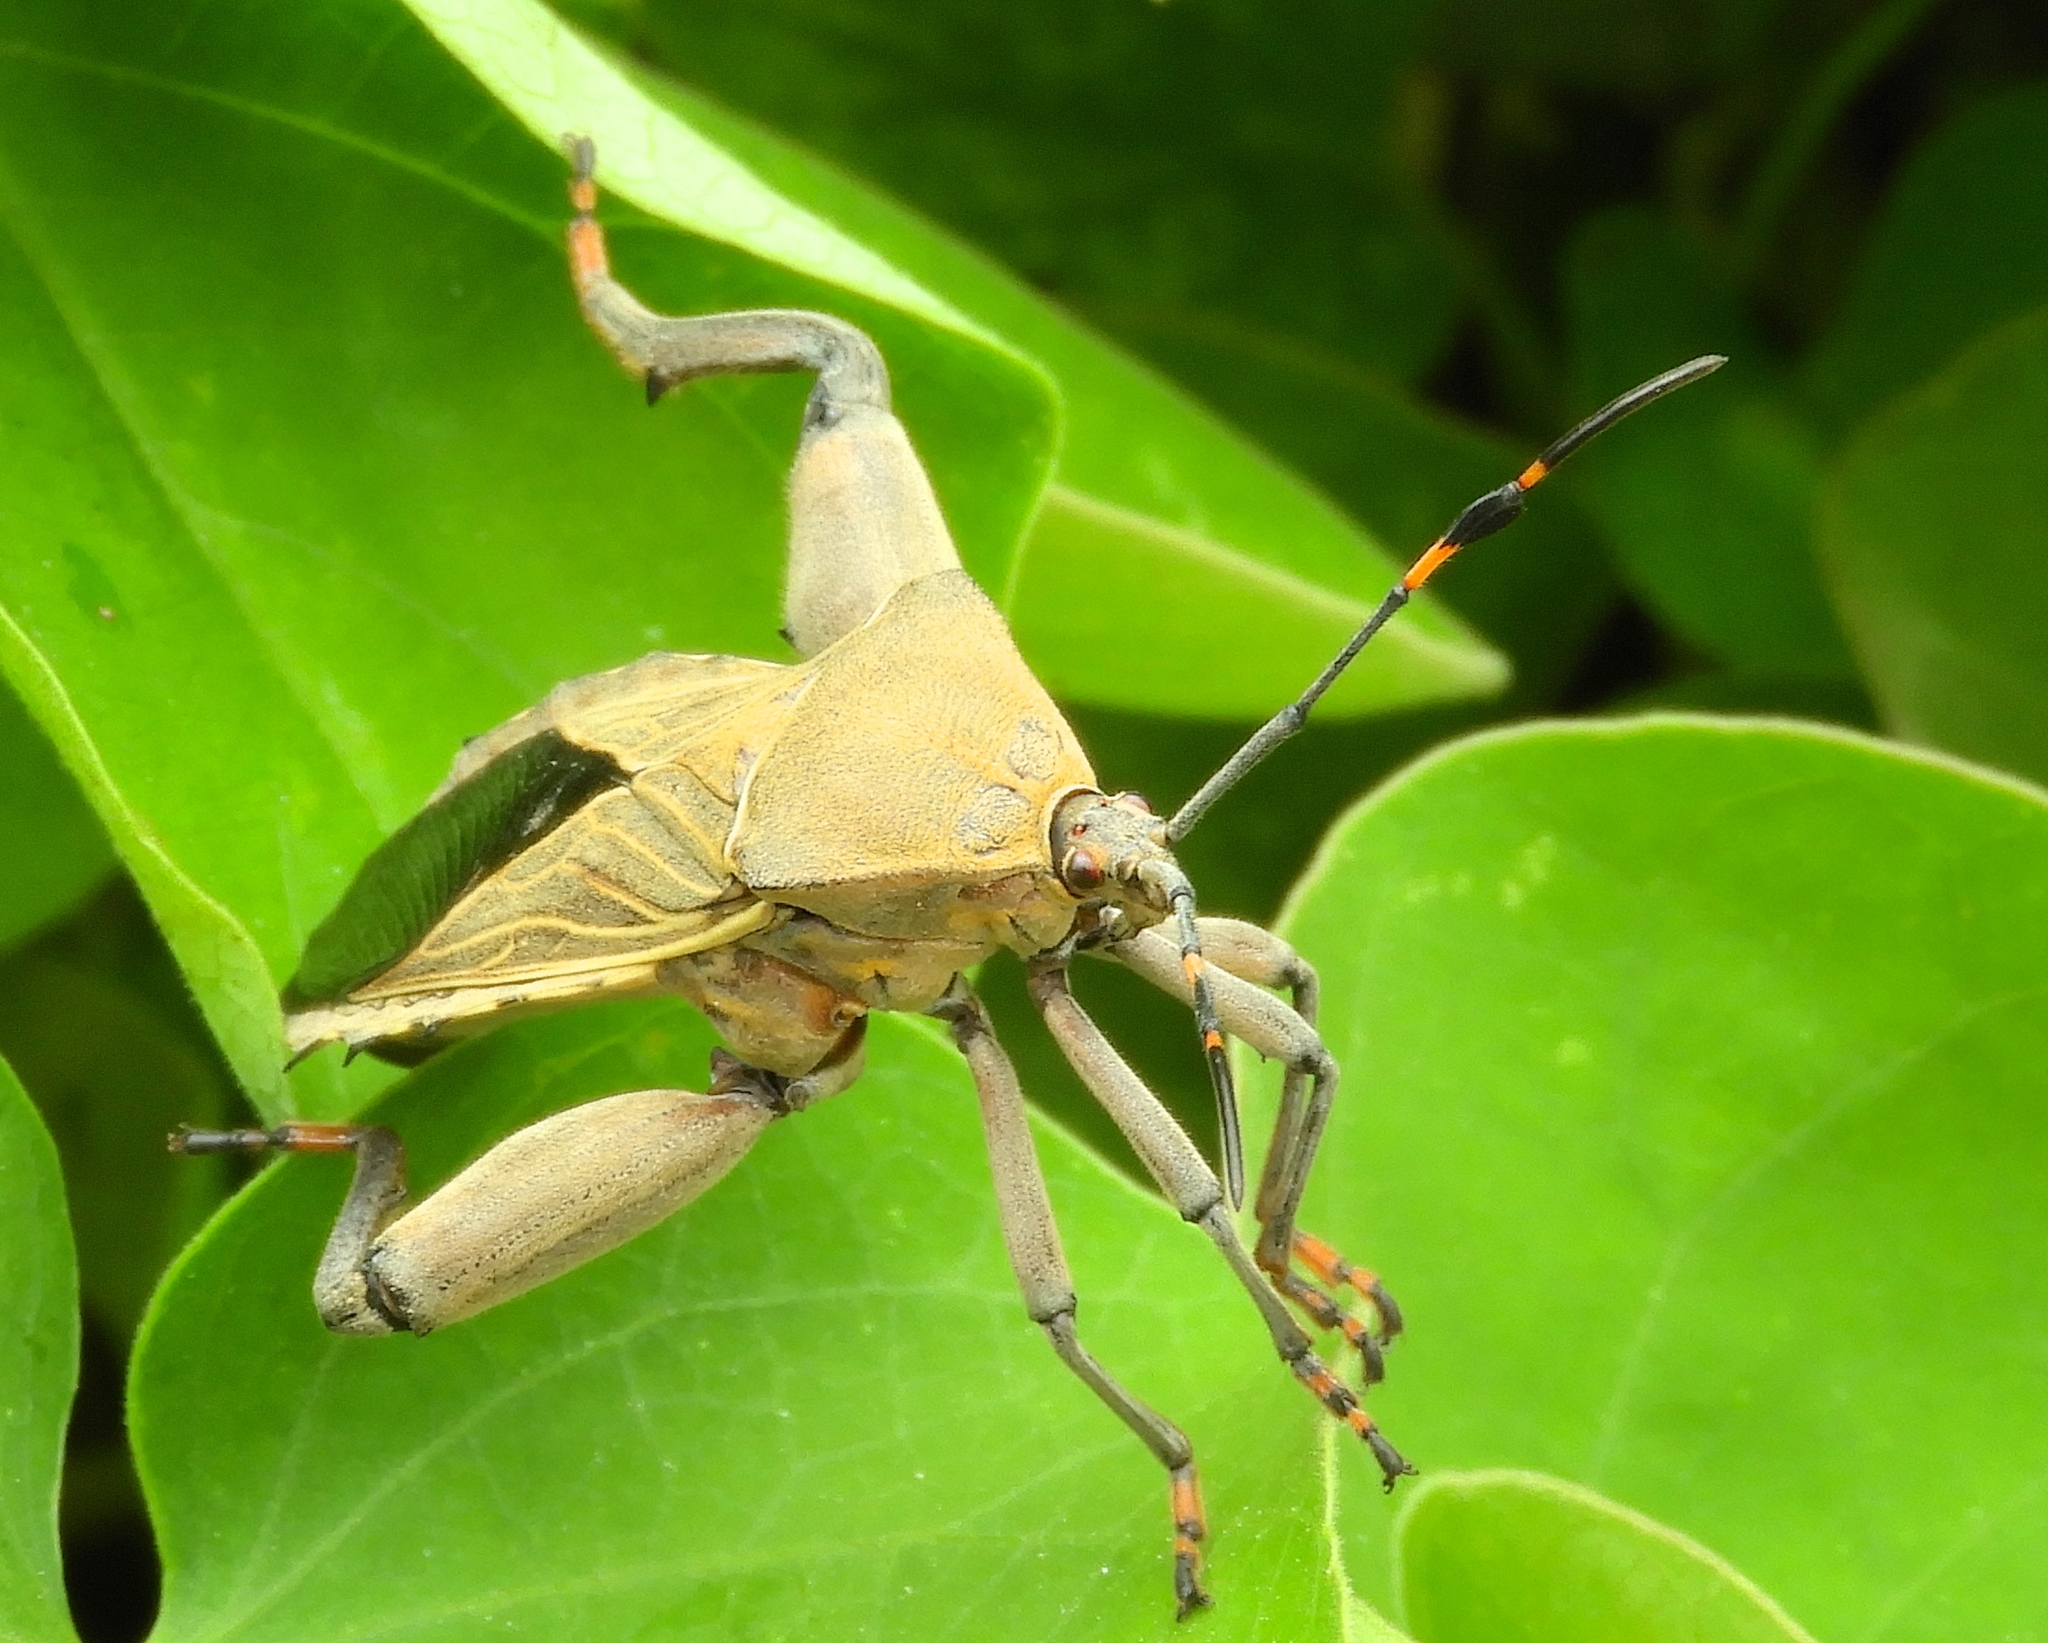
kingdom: Animalia
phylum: Arthropoda
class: Insecta
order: Hemiptera
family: Coreidae
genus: Pachylis
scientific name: Pachylis nervosus
